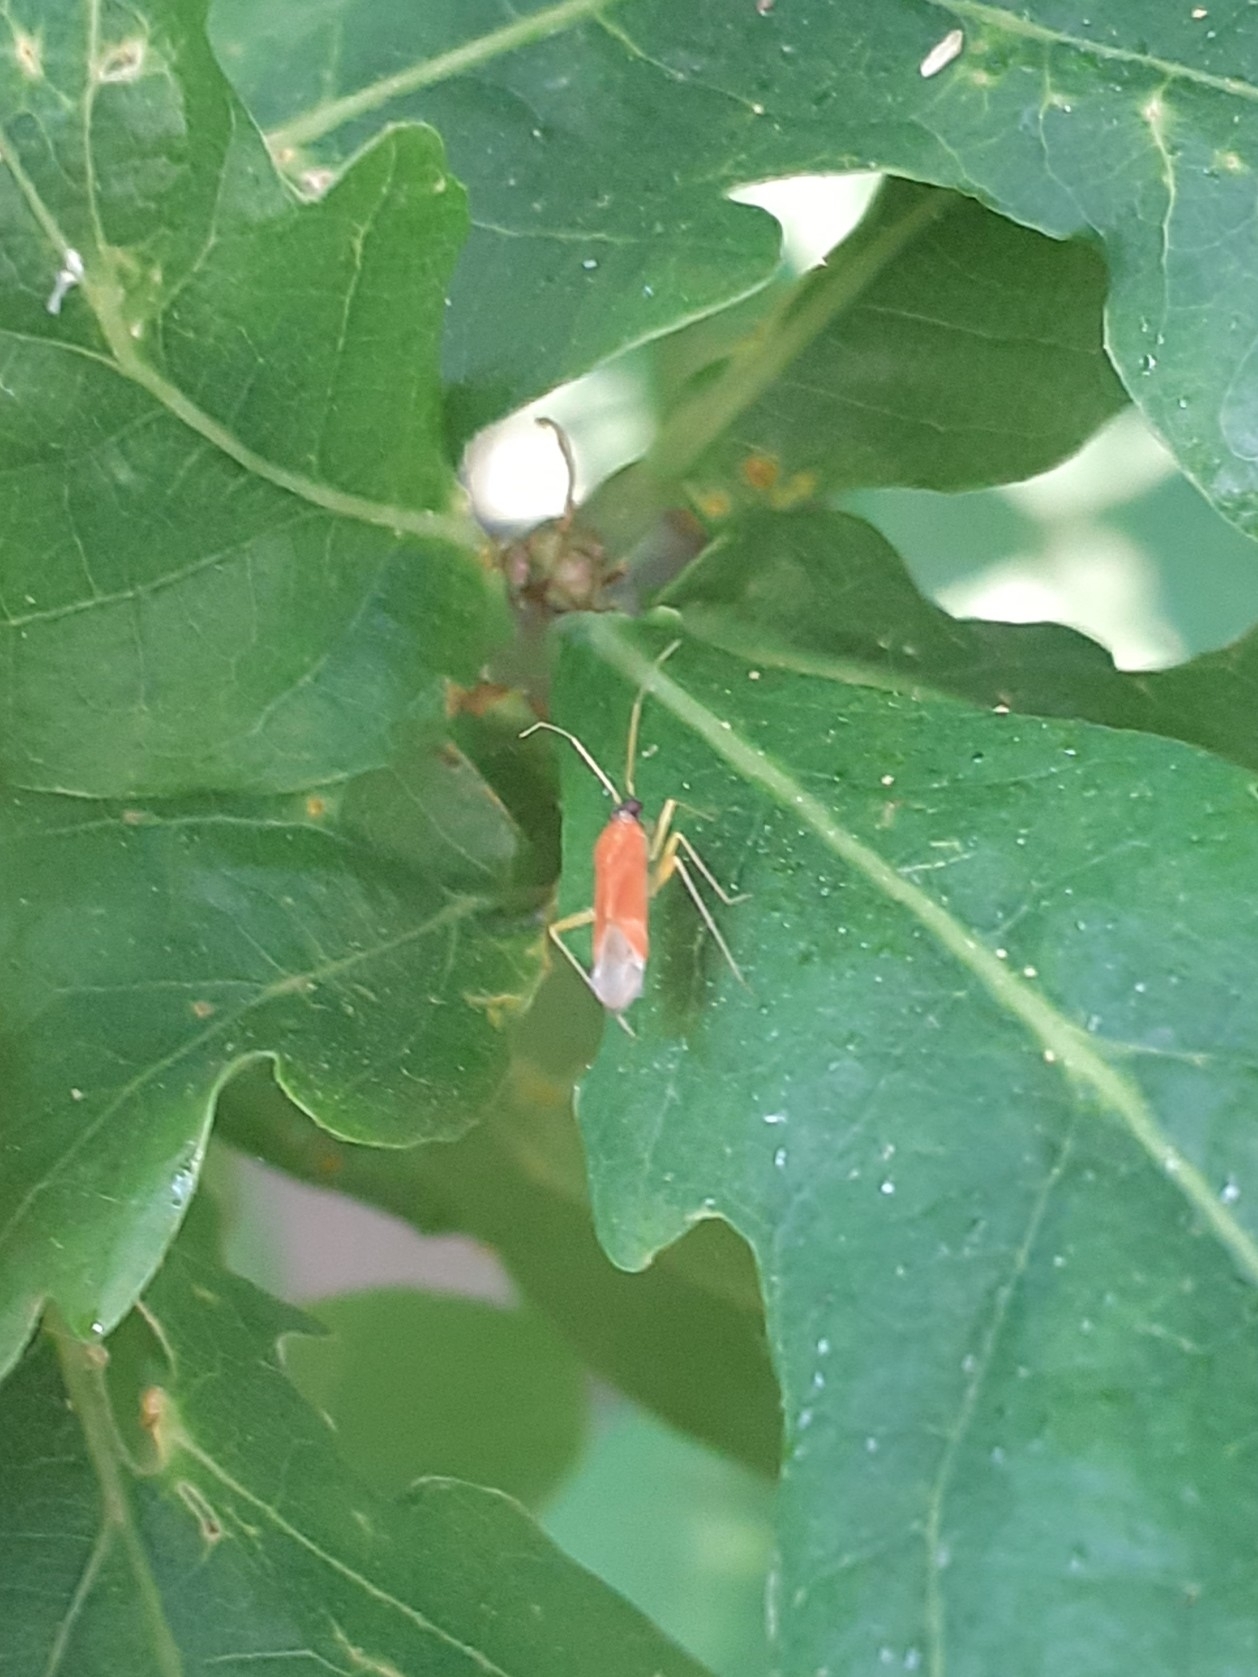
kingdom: Animalia
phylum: Arthropoda
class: Insecta
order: Hemiptera
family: Miridae
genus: Phylus
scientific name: Phylus melanocephalus
